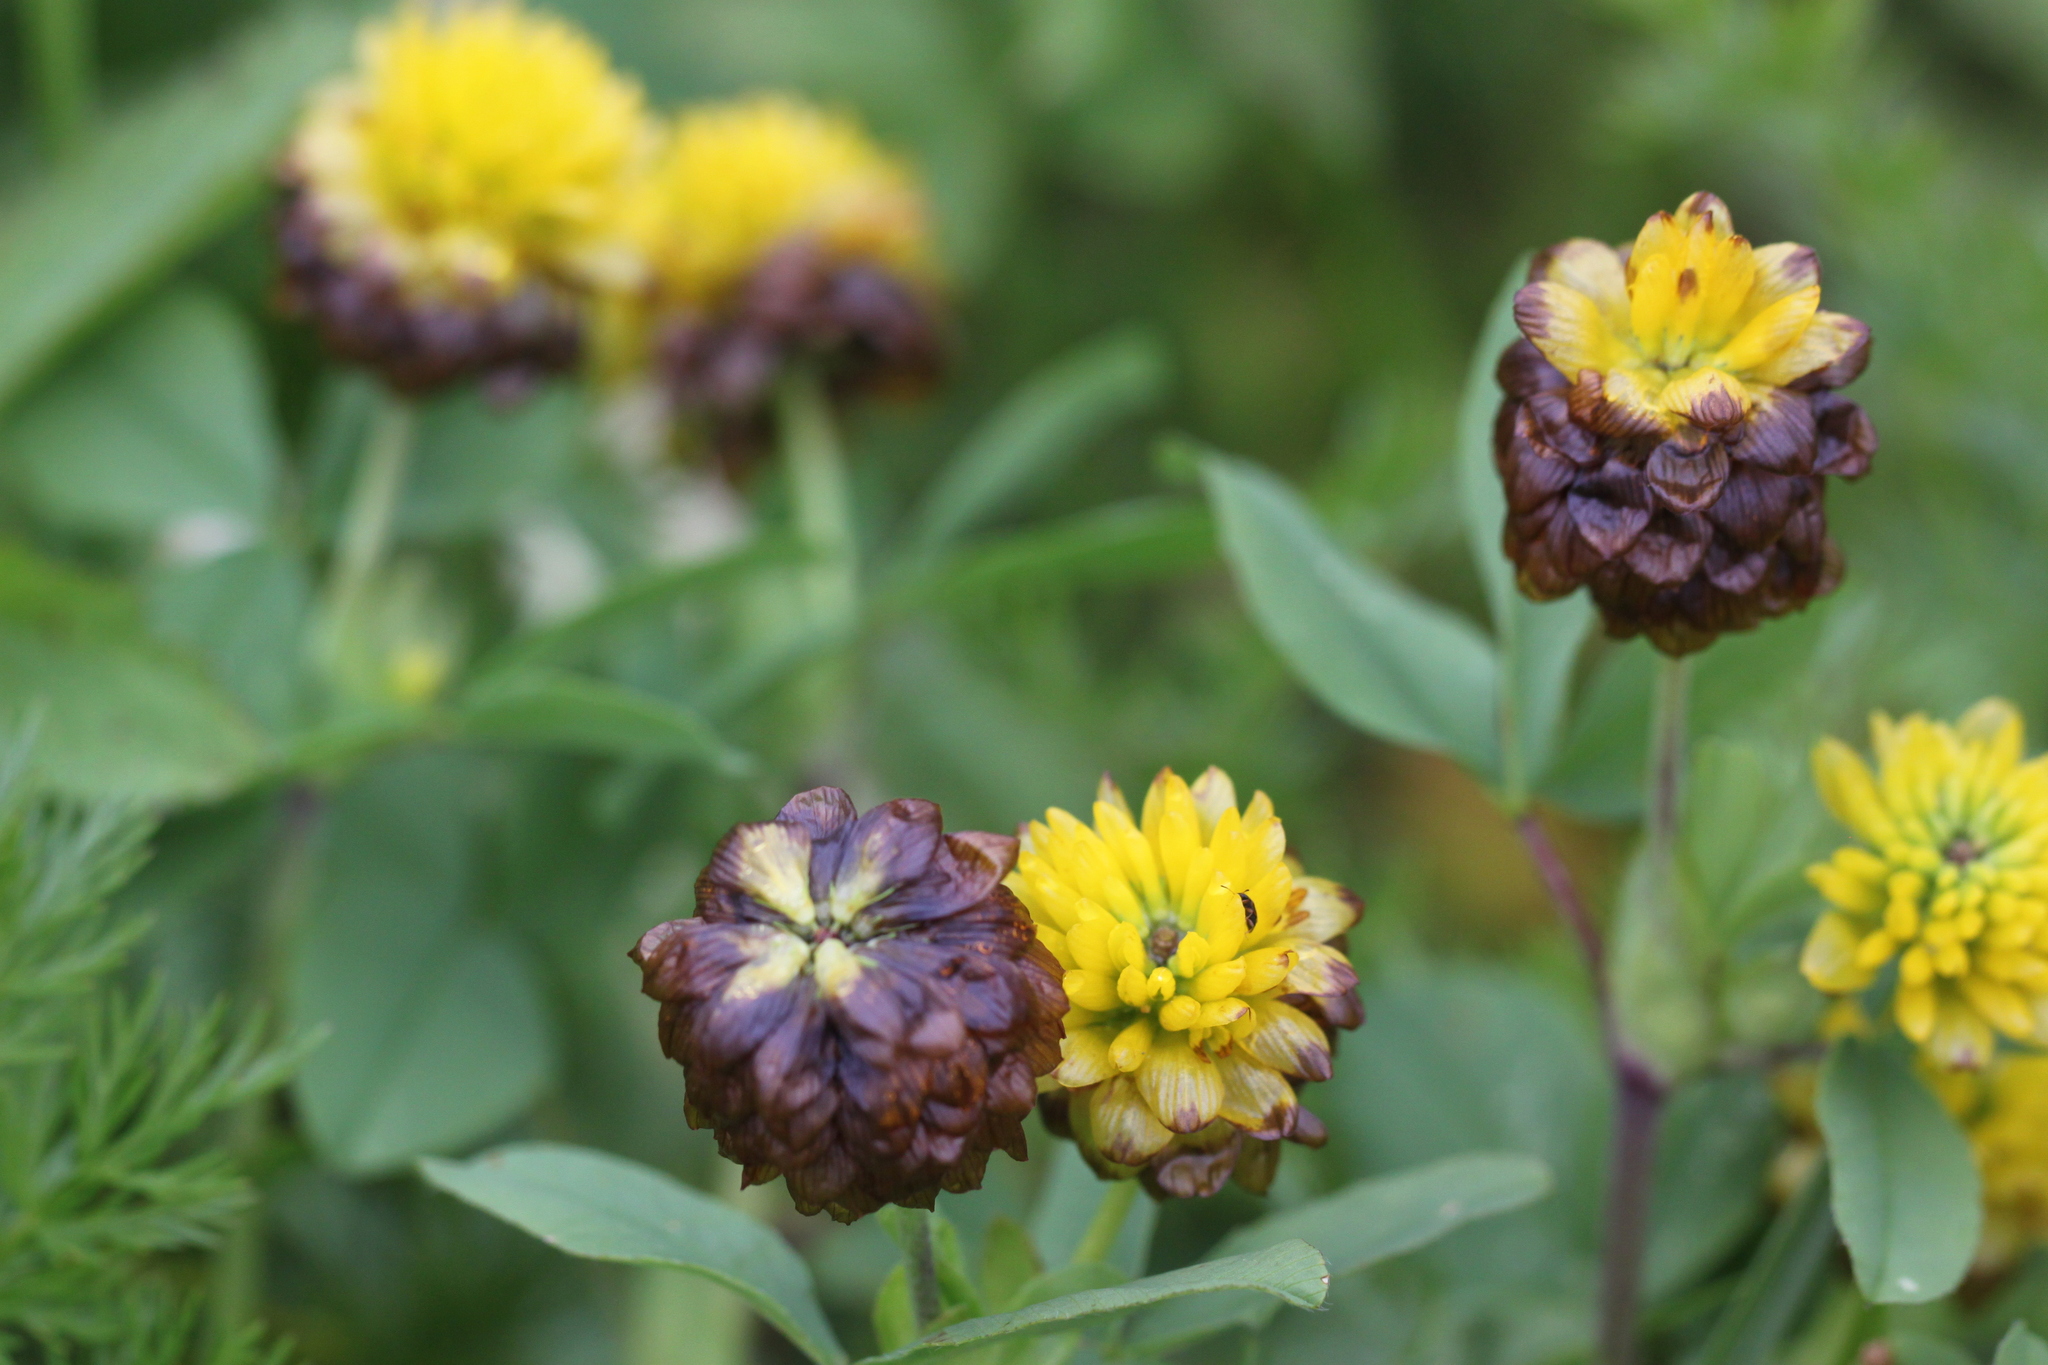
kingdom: Plantae
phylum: Tracheophyta
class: Magnoliopsida
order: Fabales
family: Fabaceae
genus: Trifolium
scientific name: Trifolium badium
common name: Brown clover
